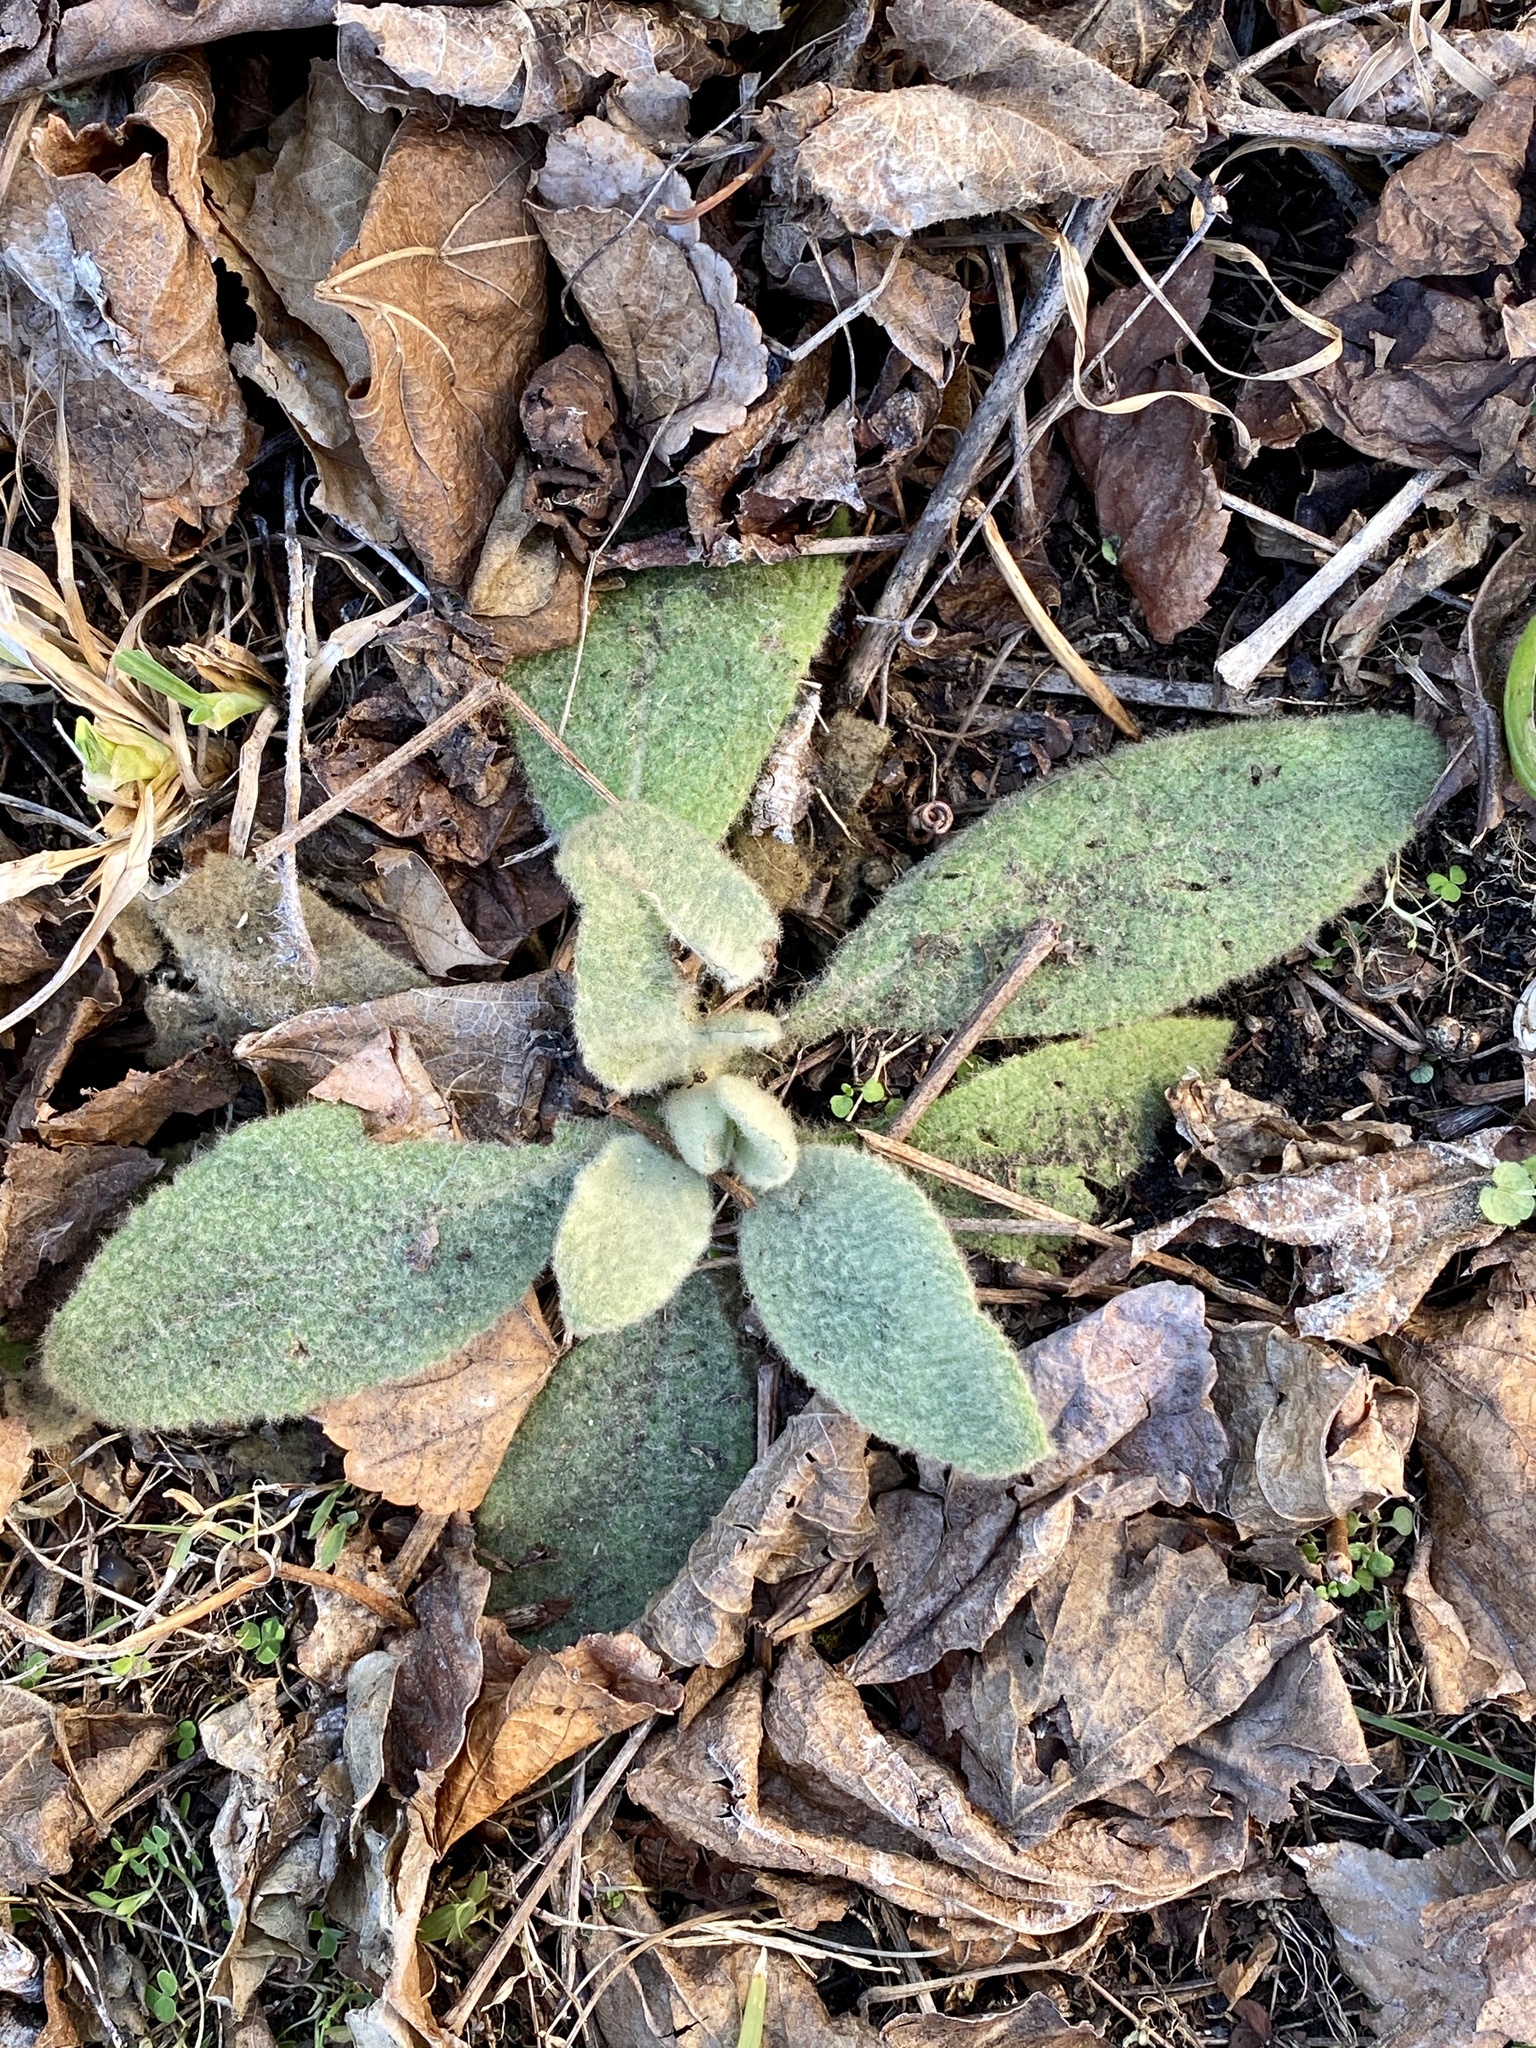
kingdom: Plantae
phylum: Tracheophyta
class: Magnoliopsida
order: Lamiales
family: Scrophulariaceae
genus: Verbascum
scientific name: Verbascum thapsus
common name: Common mullein
